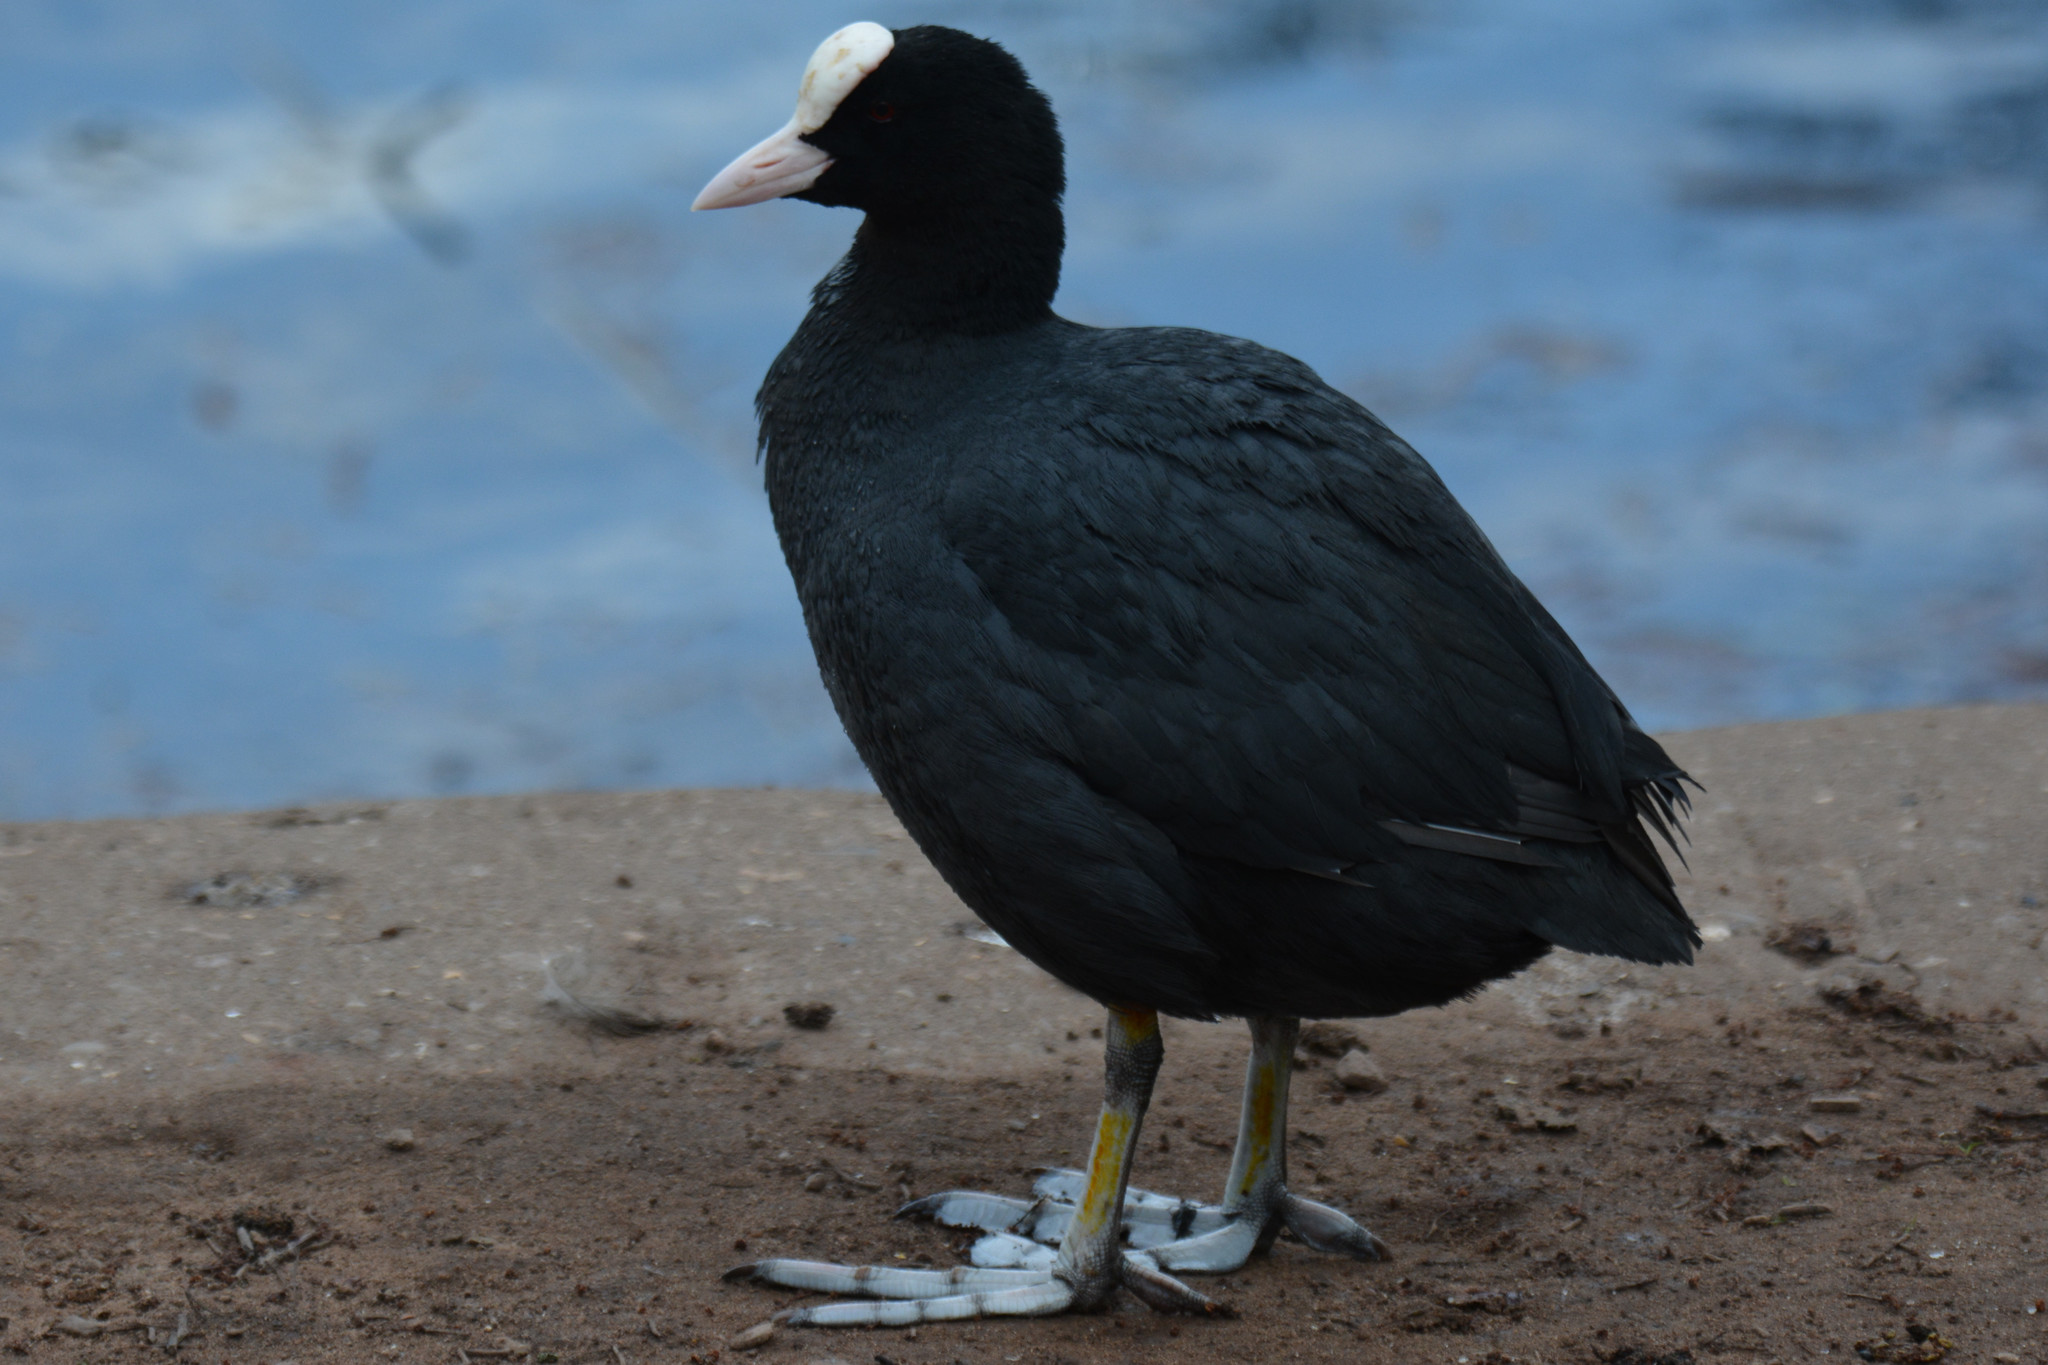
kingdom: Animalia
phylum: Chordata
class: Aves
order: Gruiformes
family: Rallidae
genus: Fulica
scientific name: Fulica atra
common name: Eurasian coot
